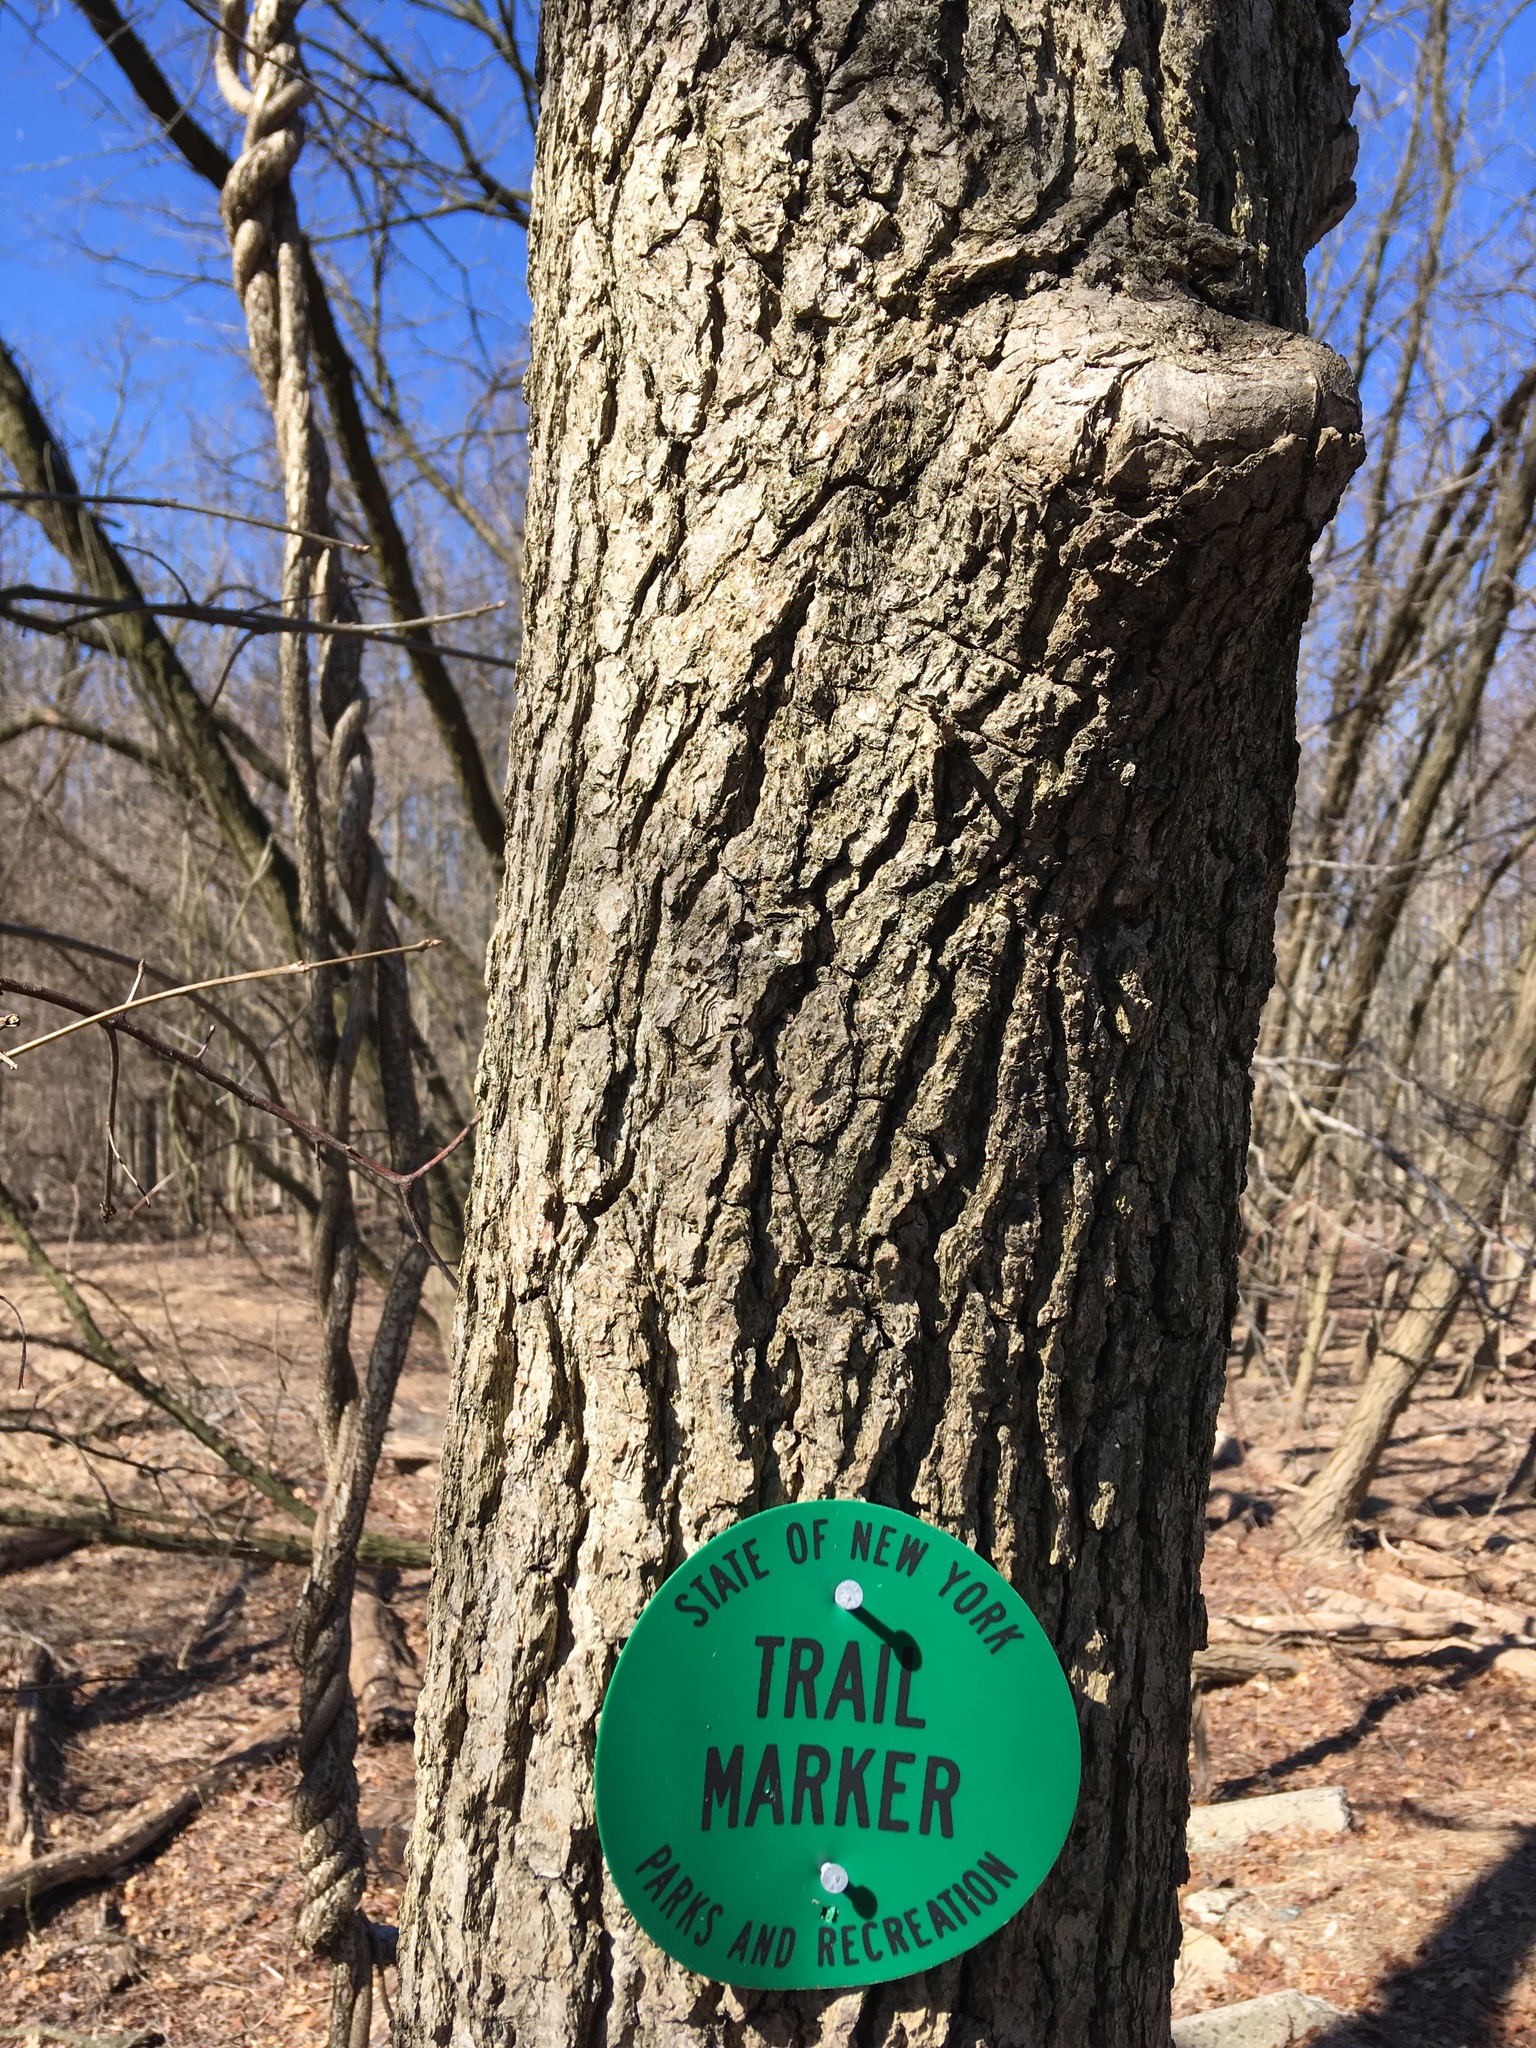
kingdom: Plantae
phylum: Tracheophyta
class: Magnoliopsida
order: Saxifragales
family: Altingiaceae
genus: Liquidambar
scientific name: Liquidambar styraciflua
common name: Sweet gum
